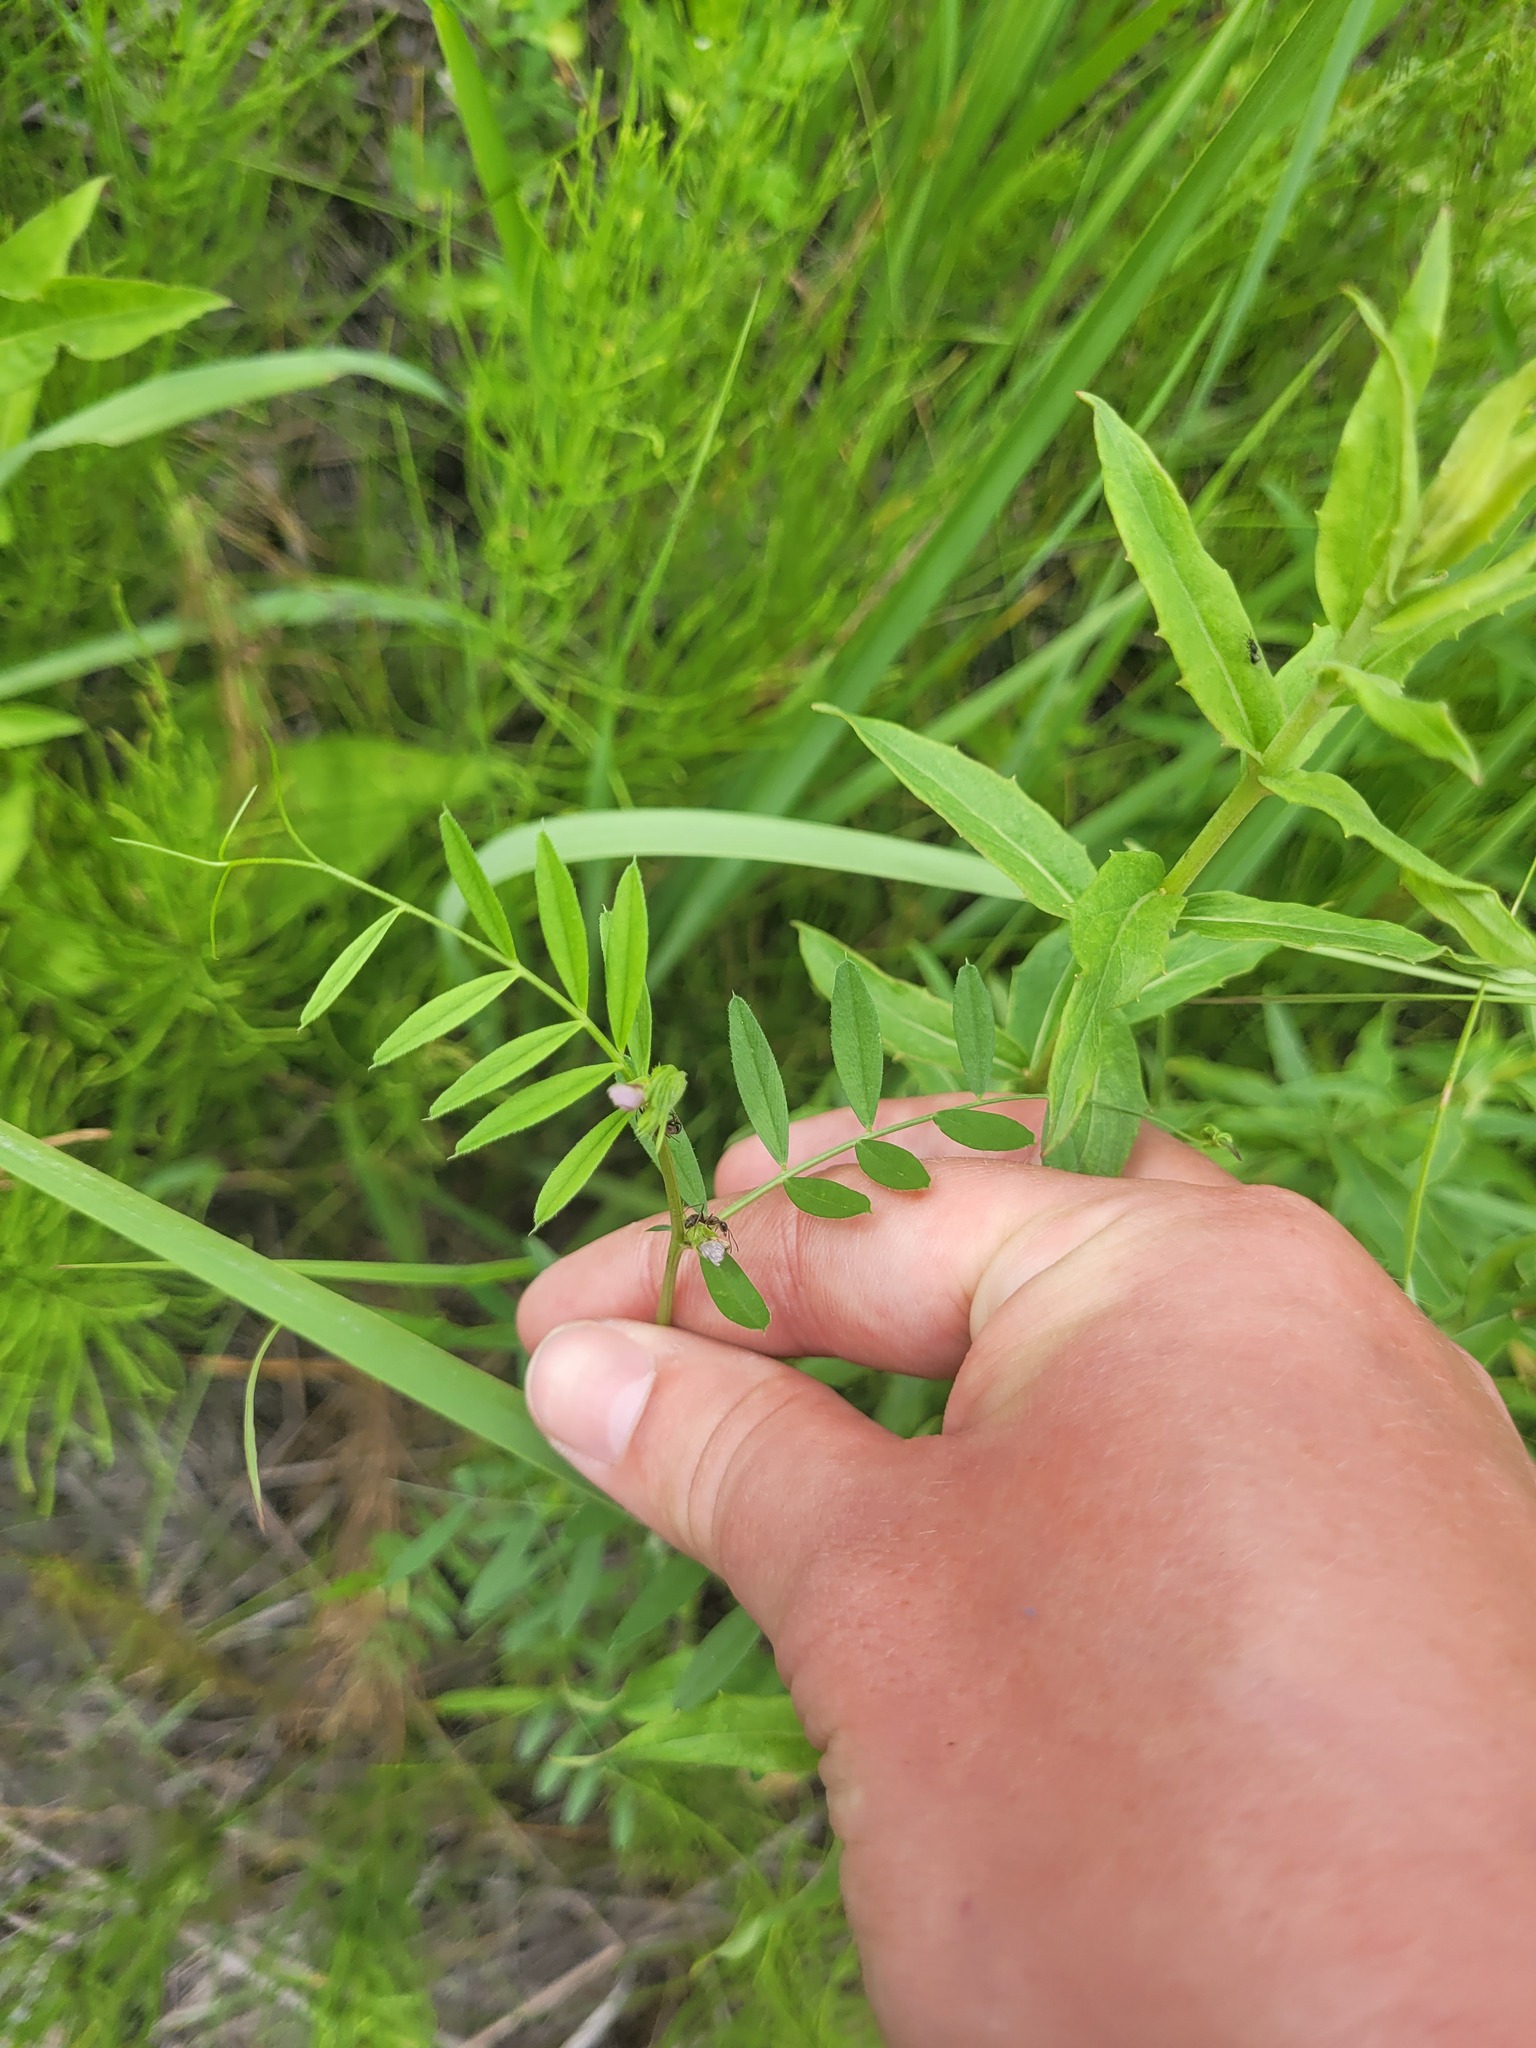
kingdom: Plantae
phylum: Tracheophyta
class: Magnoliopsida
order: Fabales
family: Fabaceae
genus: Vicia
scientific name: Vicia sativa
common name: Garden vetch
